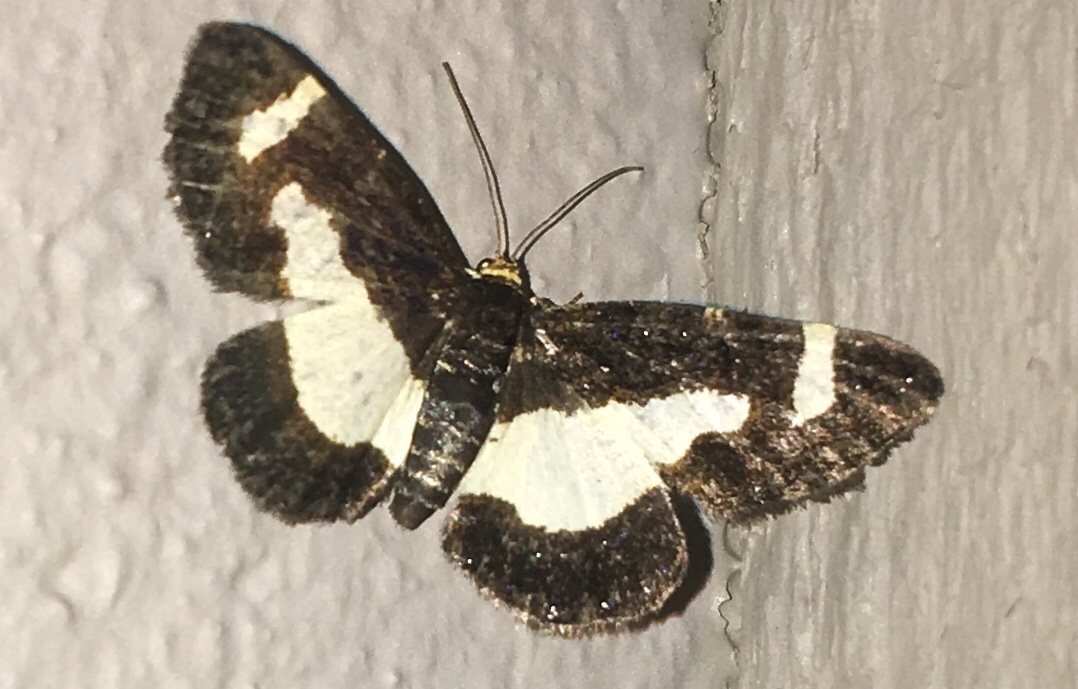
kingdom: Animalia
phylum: Arthropoda
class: Insecta
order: Lepidoptera
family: Geometridae
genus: Heliomata
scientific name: Heliomata cycladata
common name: Common spring moth
